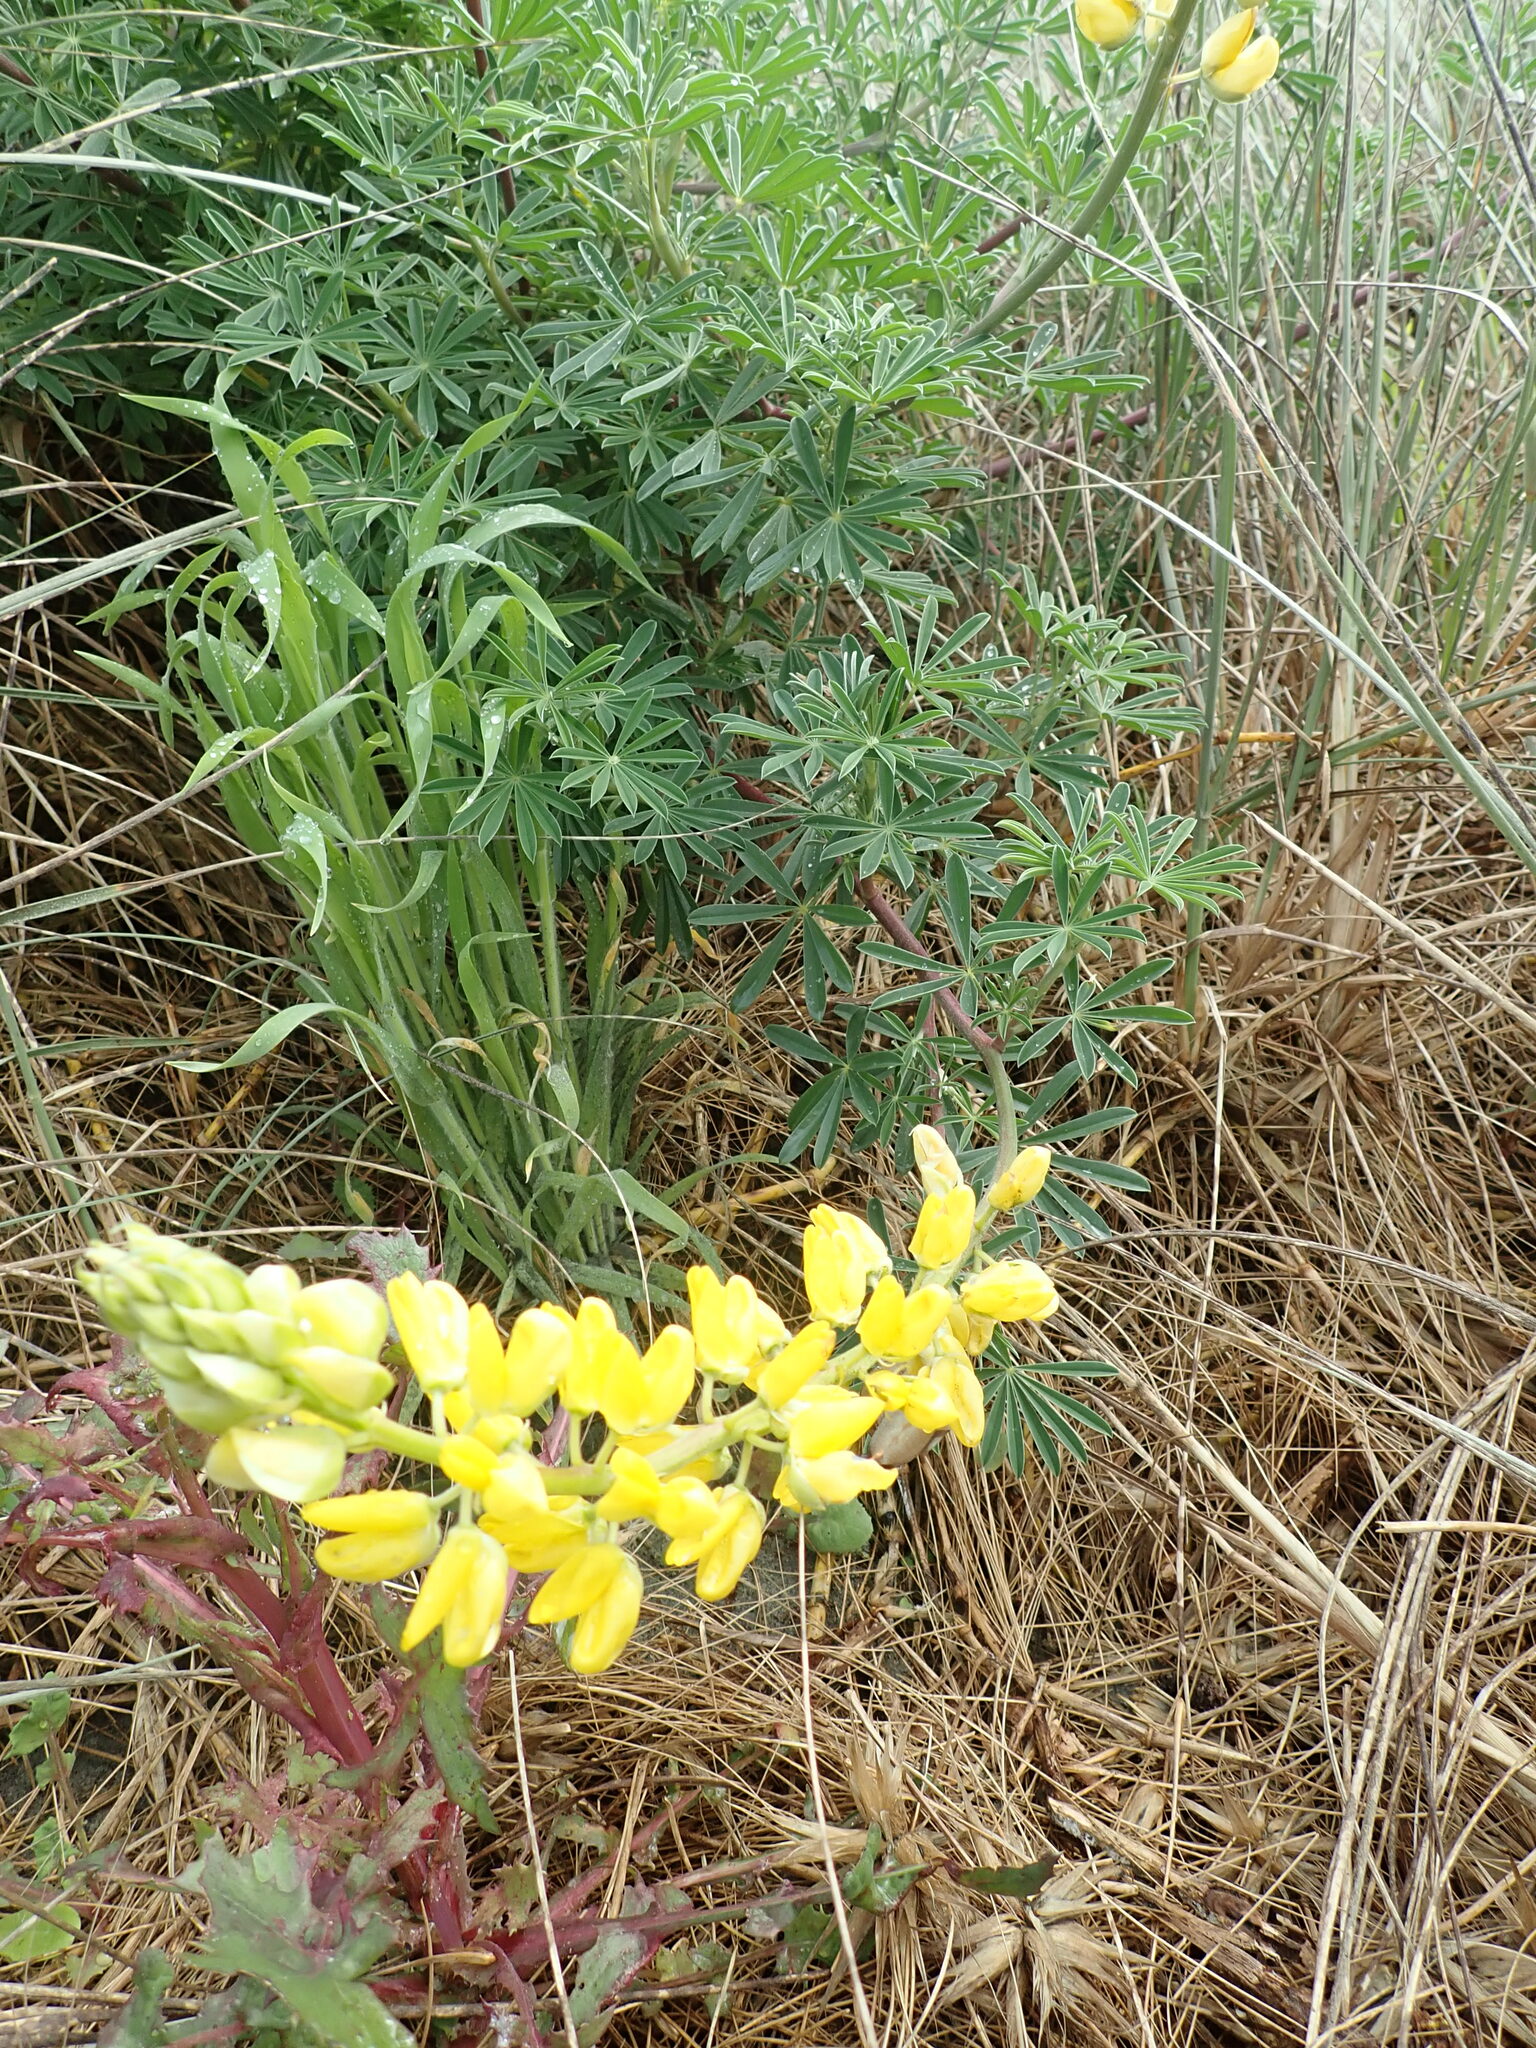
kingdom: Plantae
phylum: Tracheophyta
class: Magnoliopsida
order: Fabales
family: Fabaceae
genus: Lupinus
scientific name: Lupinus arboreus
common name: Yellow bush lupine
